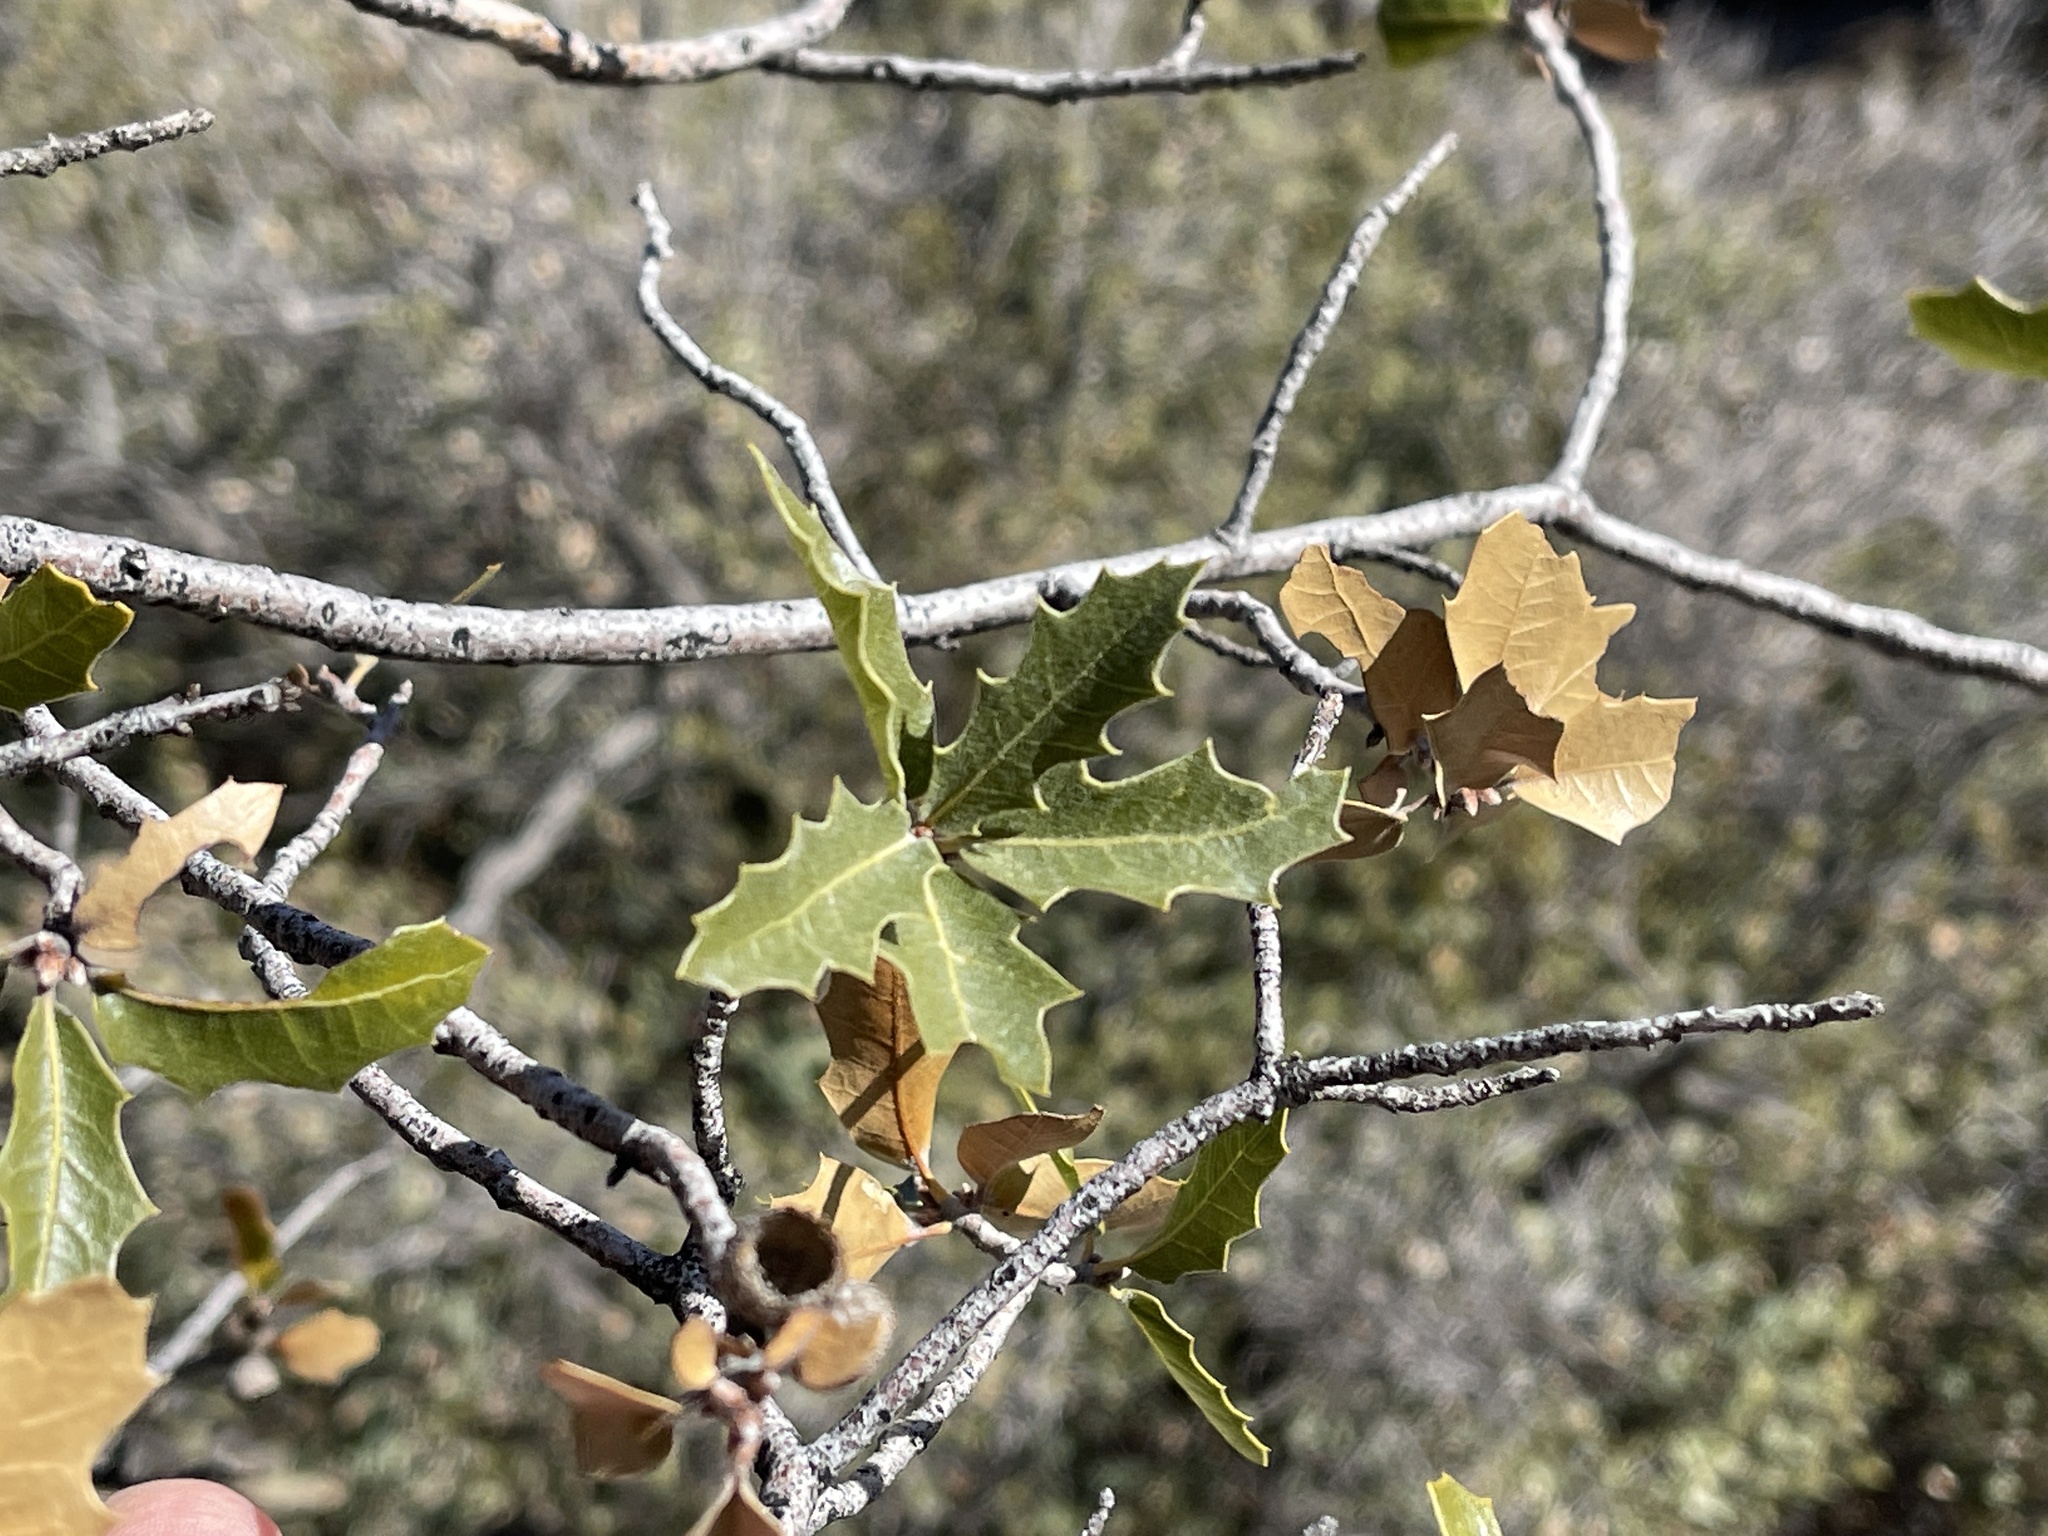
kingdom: Plantae
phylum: Tracheophyta
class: Magnoliopsida
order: Fagales
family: Fagaceae
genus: Quercus
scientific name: Quercus emoryi
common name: Emory oak
